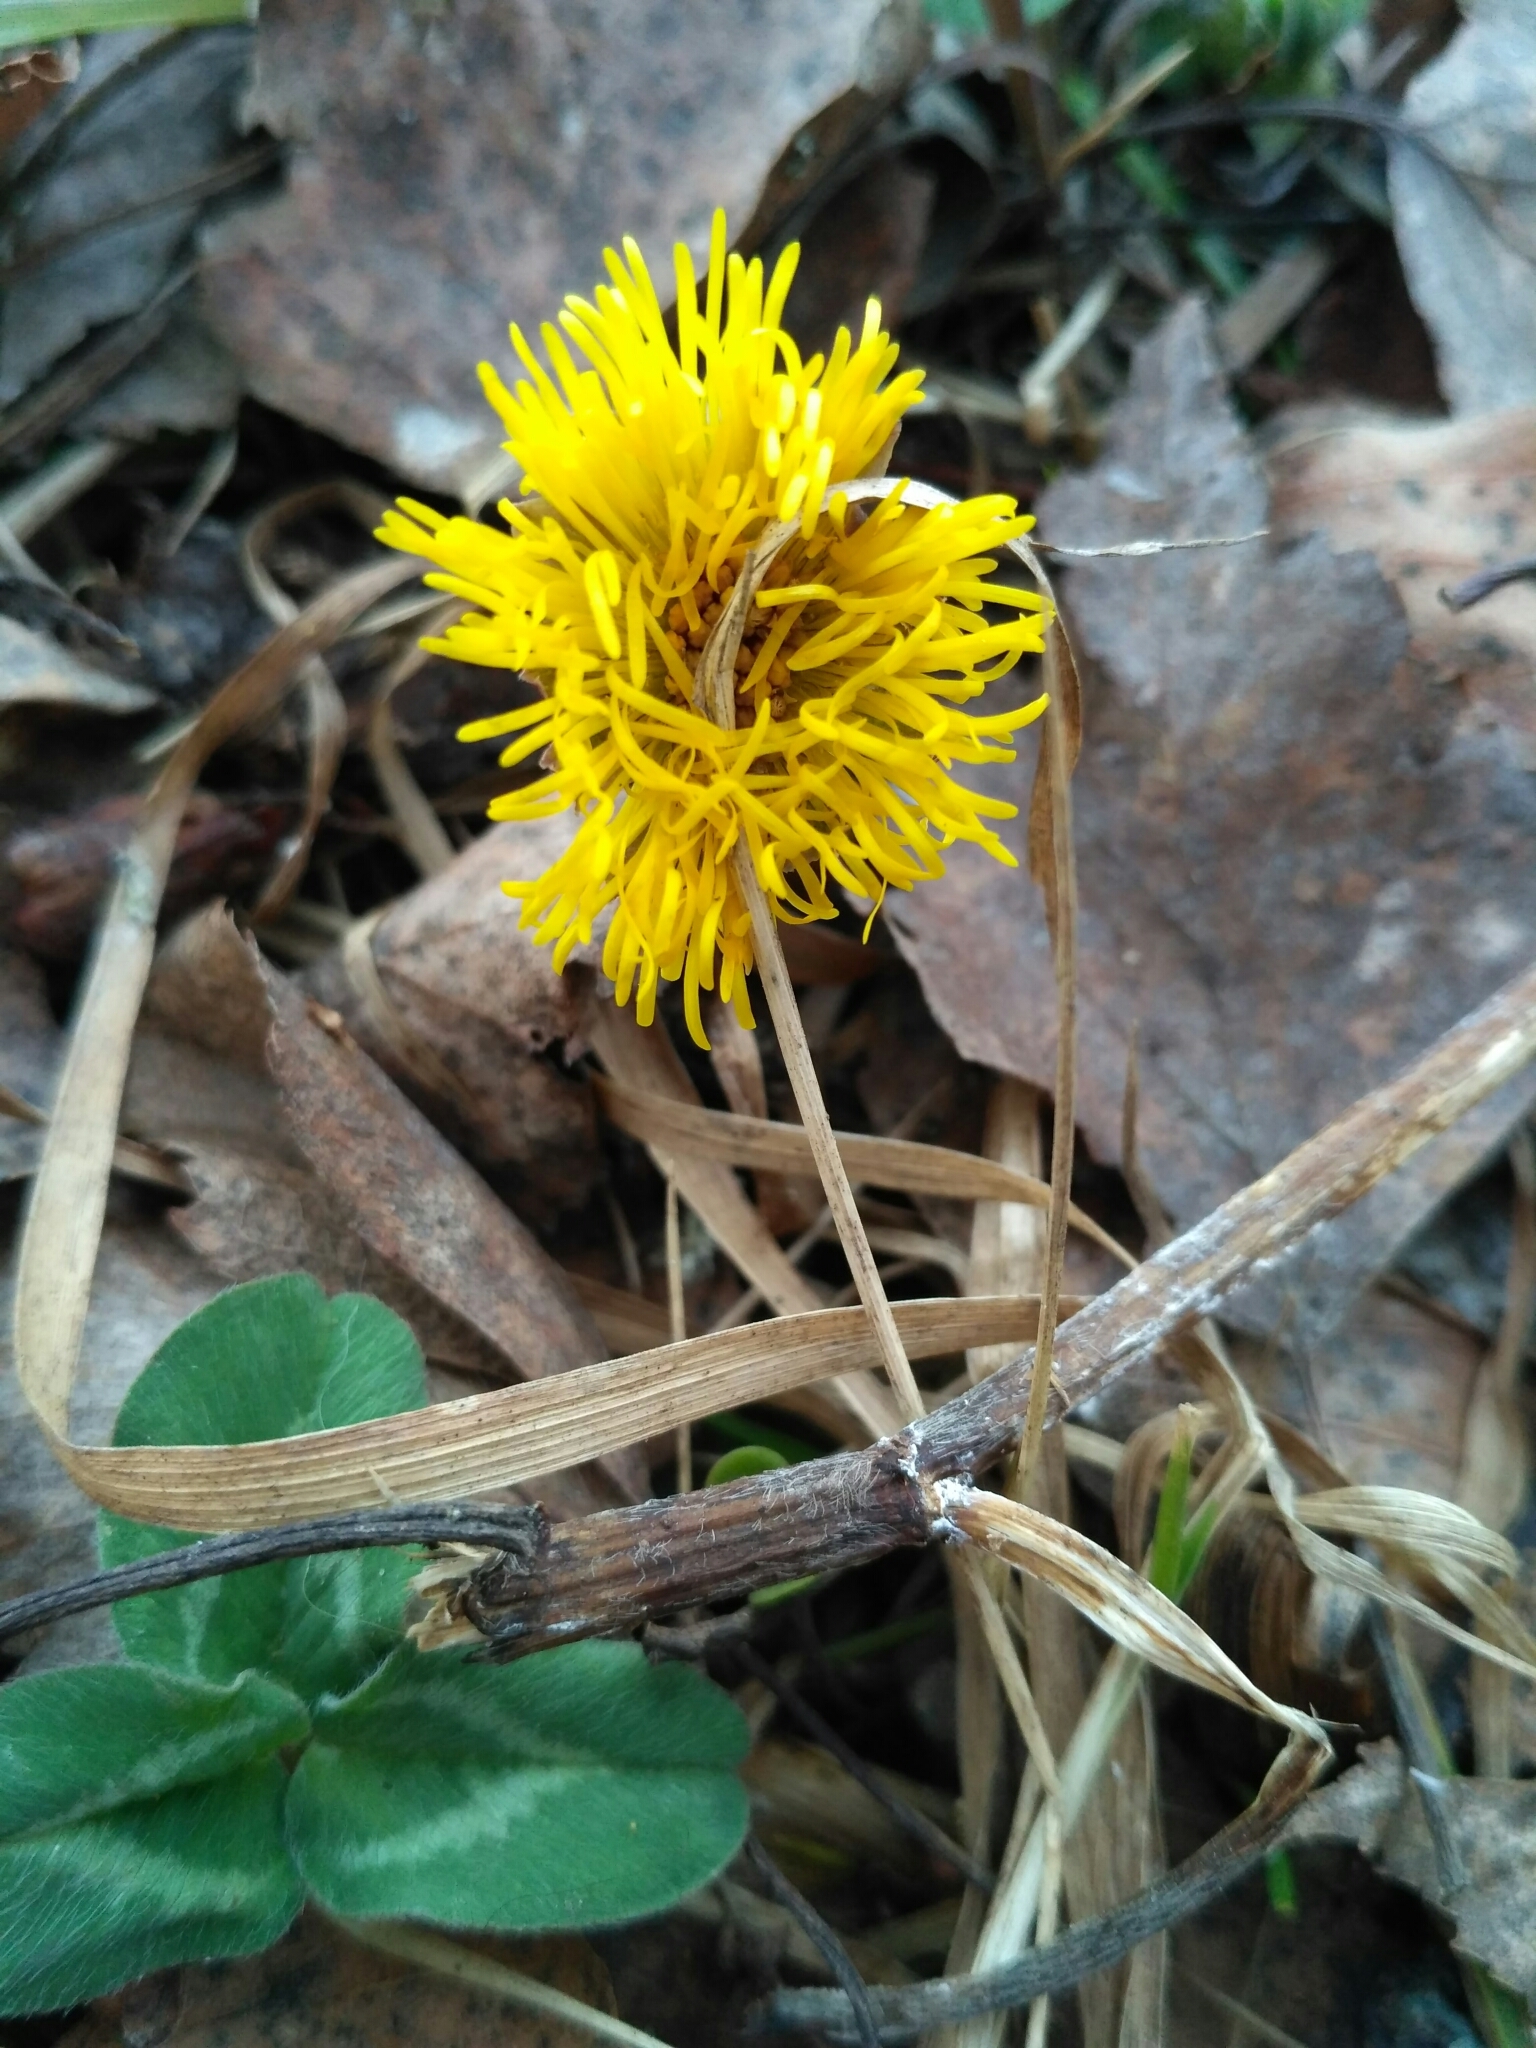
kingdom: Plantae
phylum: Tracheophyta
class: Magnoliopsida
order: Asterales
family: Asteraceae
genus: Tussilago
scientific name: Tussilago farfara
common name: Coltsfoot
